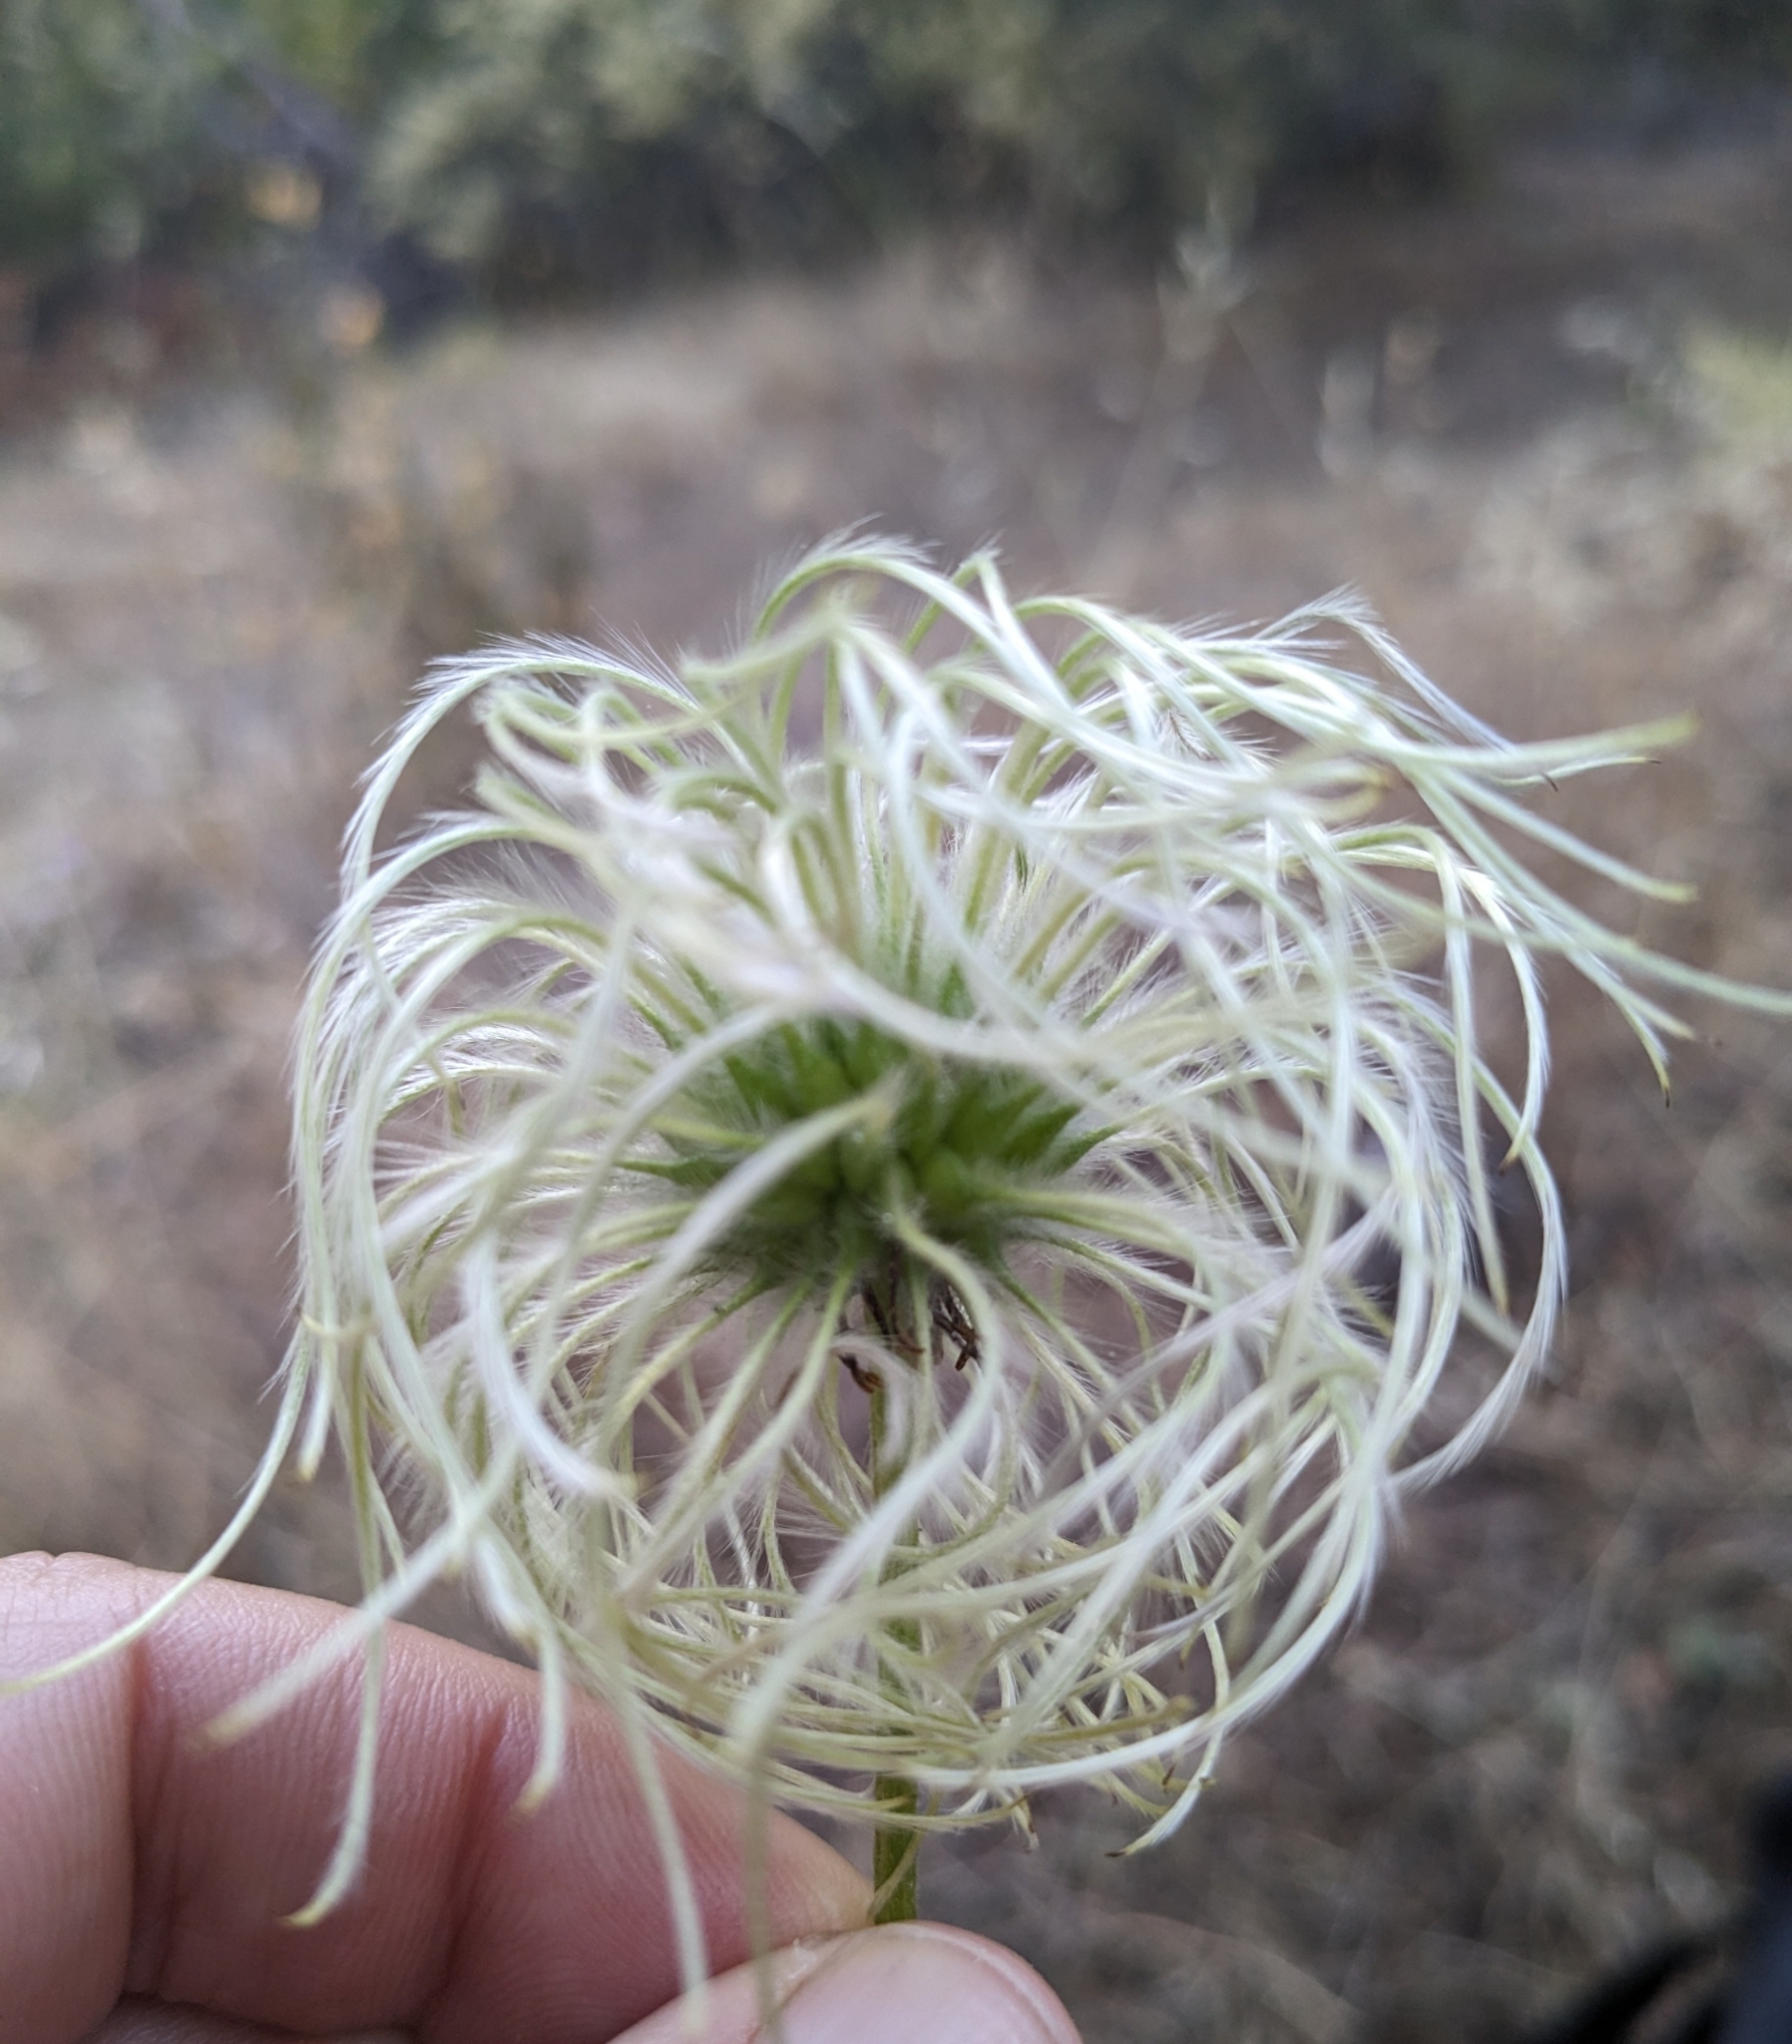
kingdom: Plantae
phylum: Tracheophyta
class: Magnoliopsida
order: Ranunculales
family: Ranunculaceae
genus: Clematis
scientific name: Clematis lasiantha
